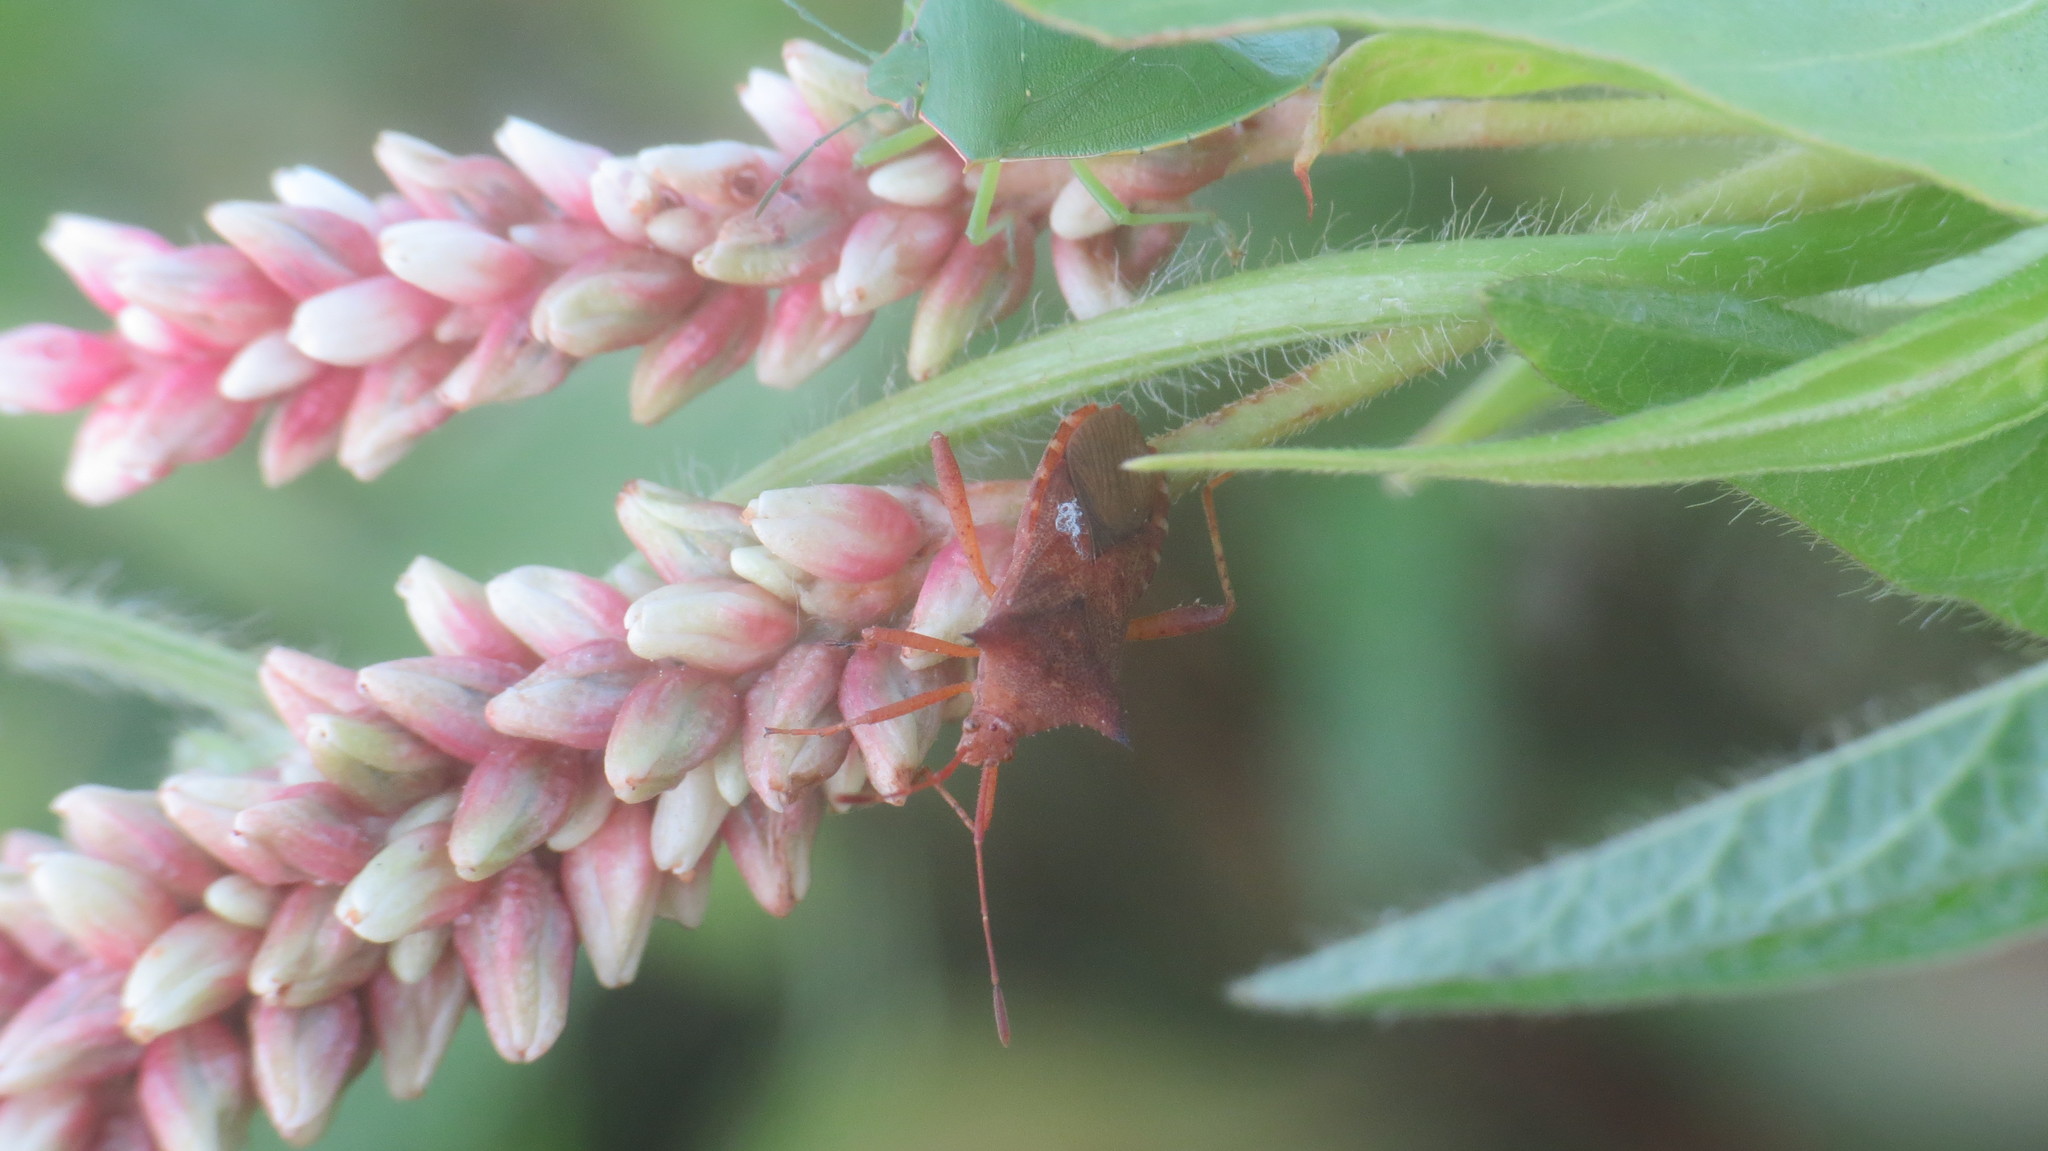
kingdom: Animalia
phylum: Arthropoda
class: Insecta
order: Hemiptera
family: Coreidae
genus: Zicca
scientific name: Zicca stali
